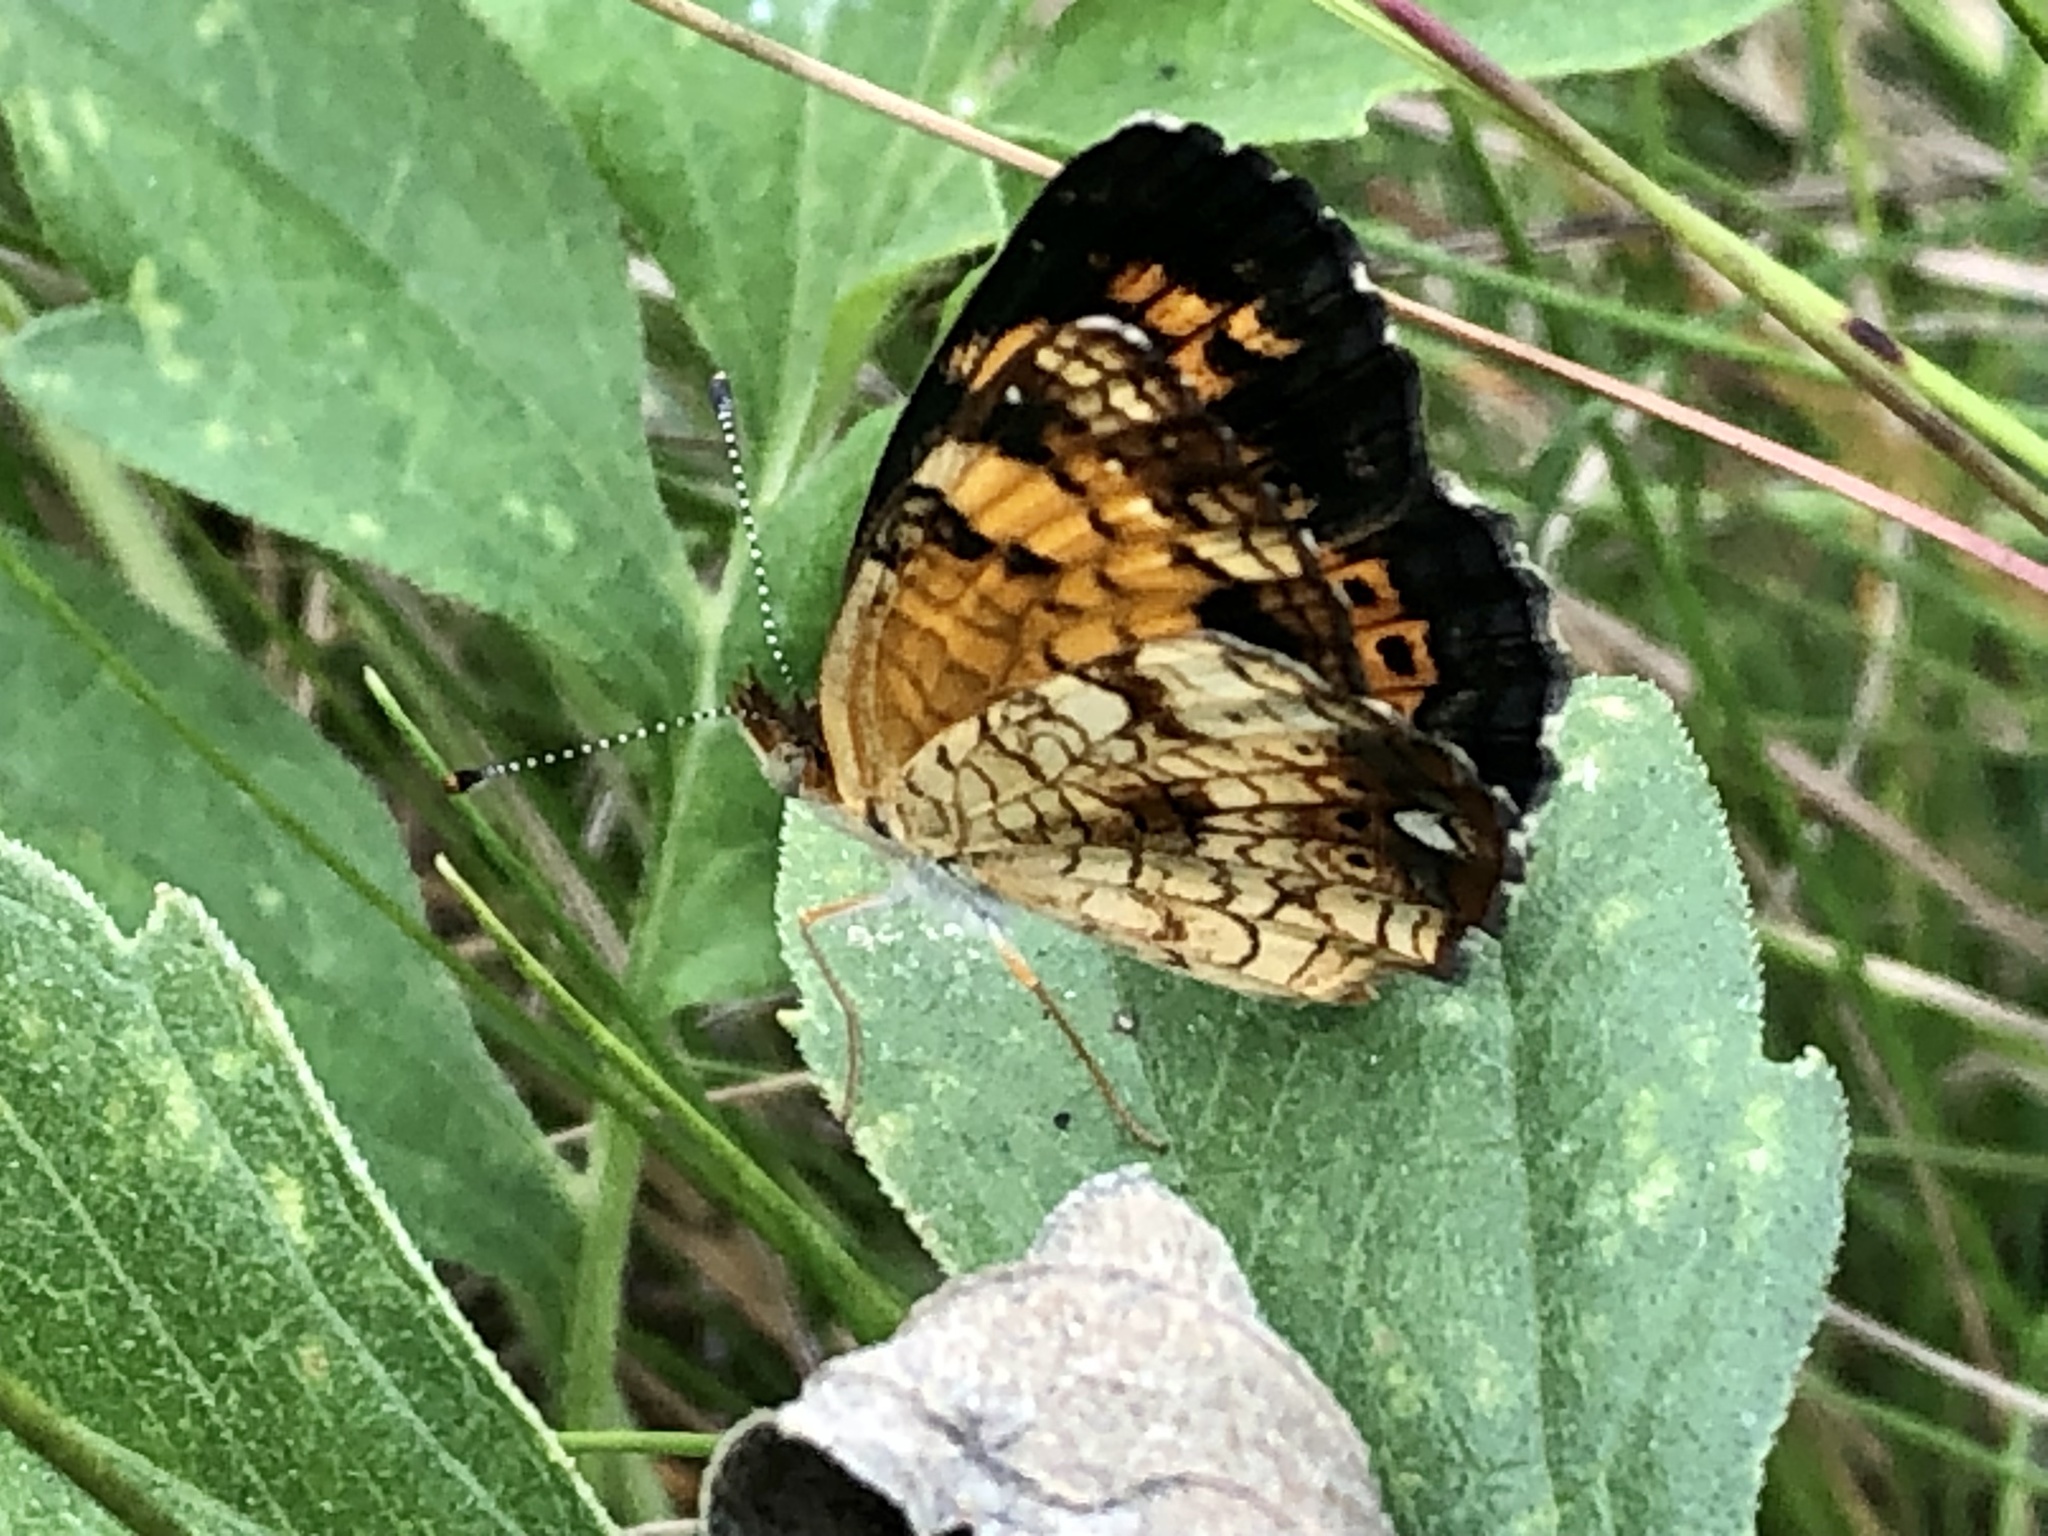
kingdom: Animalia
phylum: Arthropoda
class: Insecta
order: Lepidoptera
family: Nymphalidae
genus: Phyciodes
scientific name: Phyciodes tharos
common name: Pearl crescent
